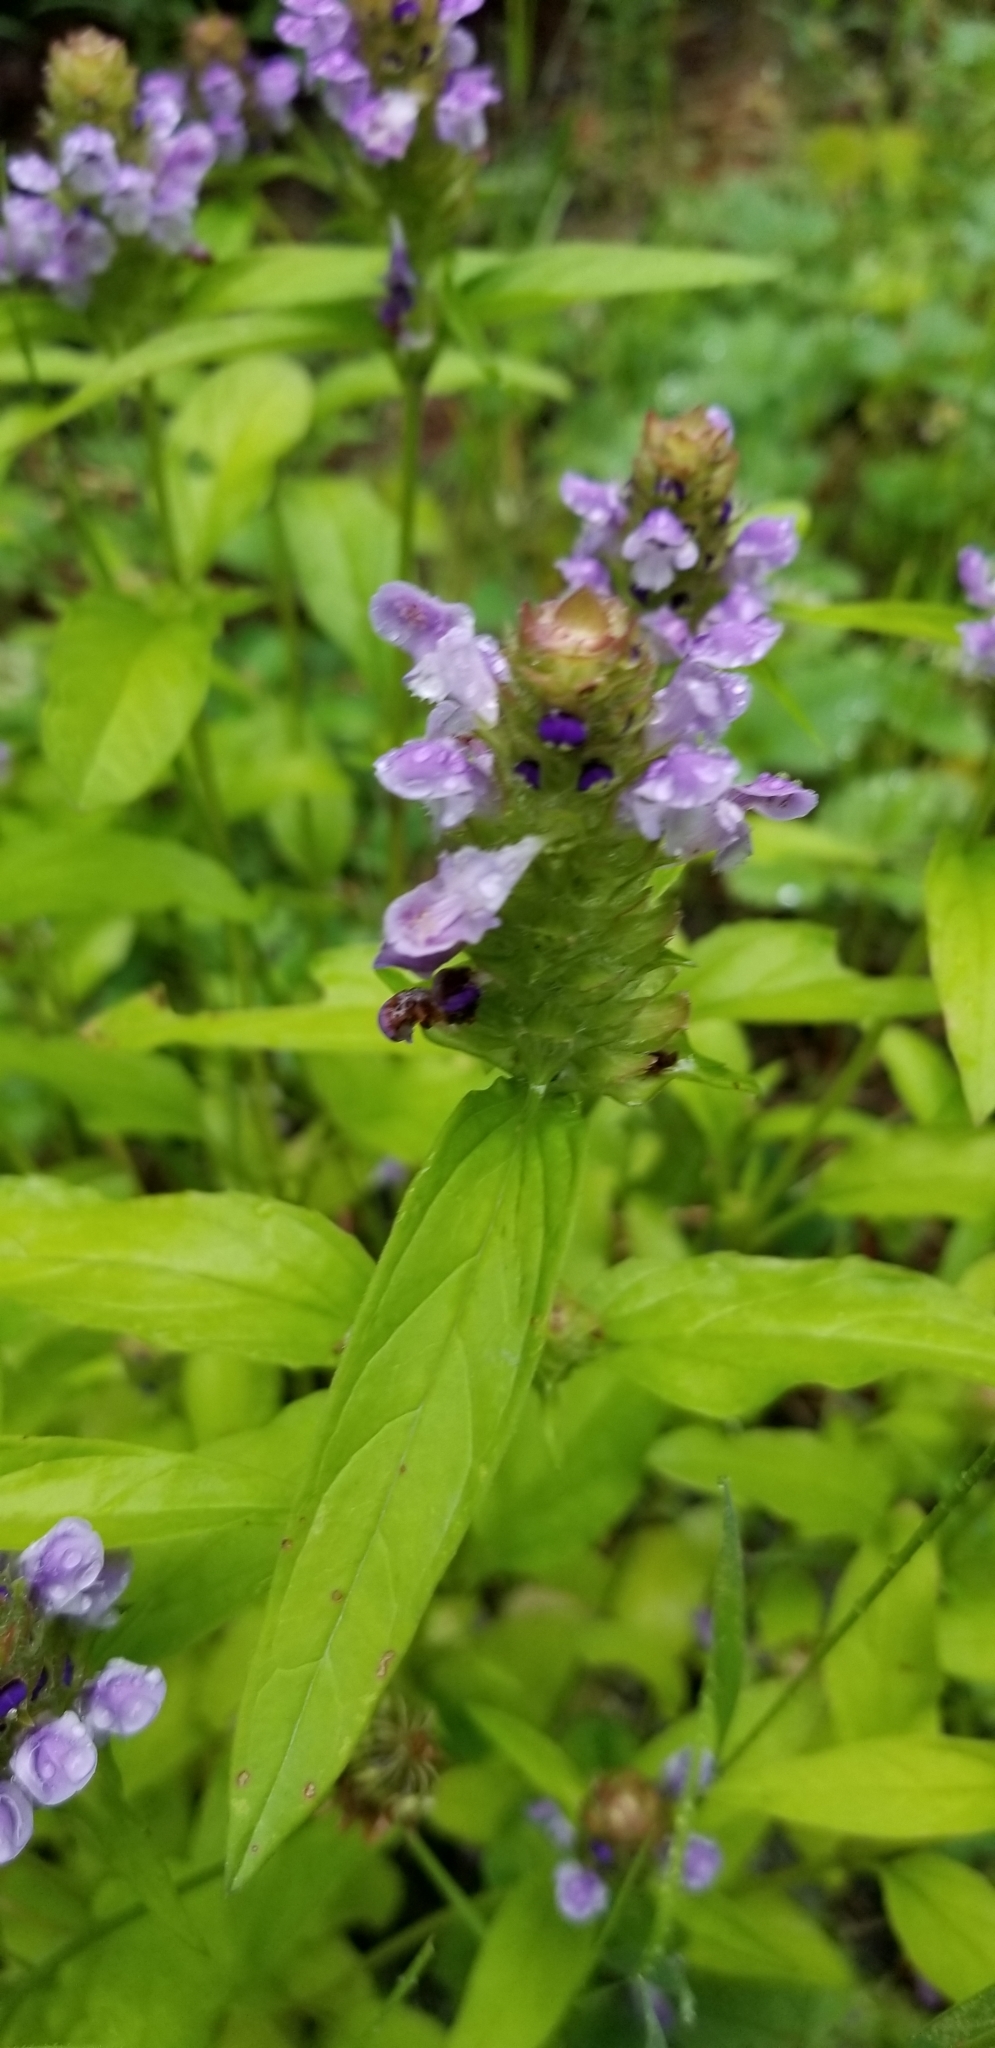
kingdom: Plantae
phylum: Tracheophyta
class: Magnoliopsida
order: Lamiales
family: Lamiaceae
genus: Prunella
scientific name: Prunella vulgaris
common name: Heal-all
